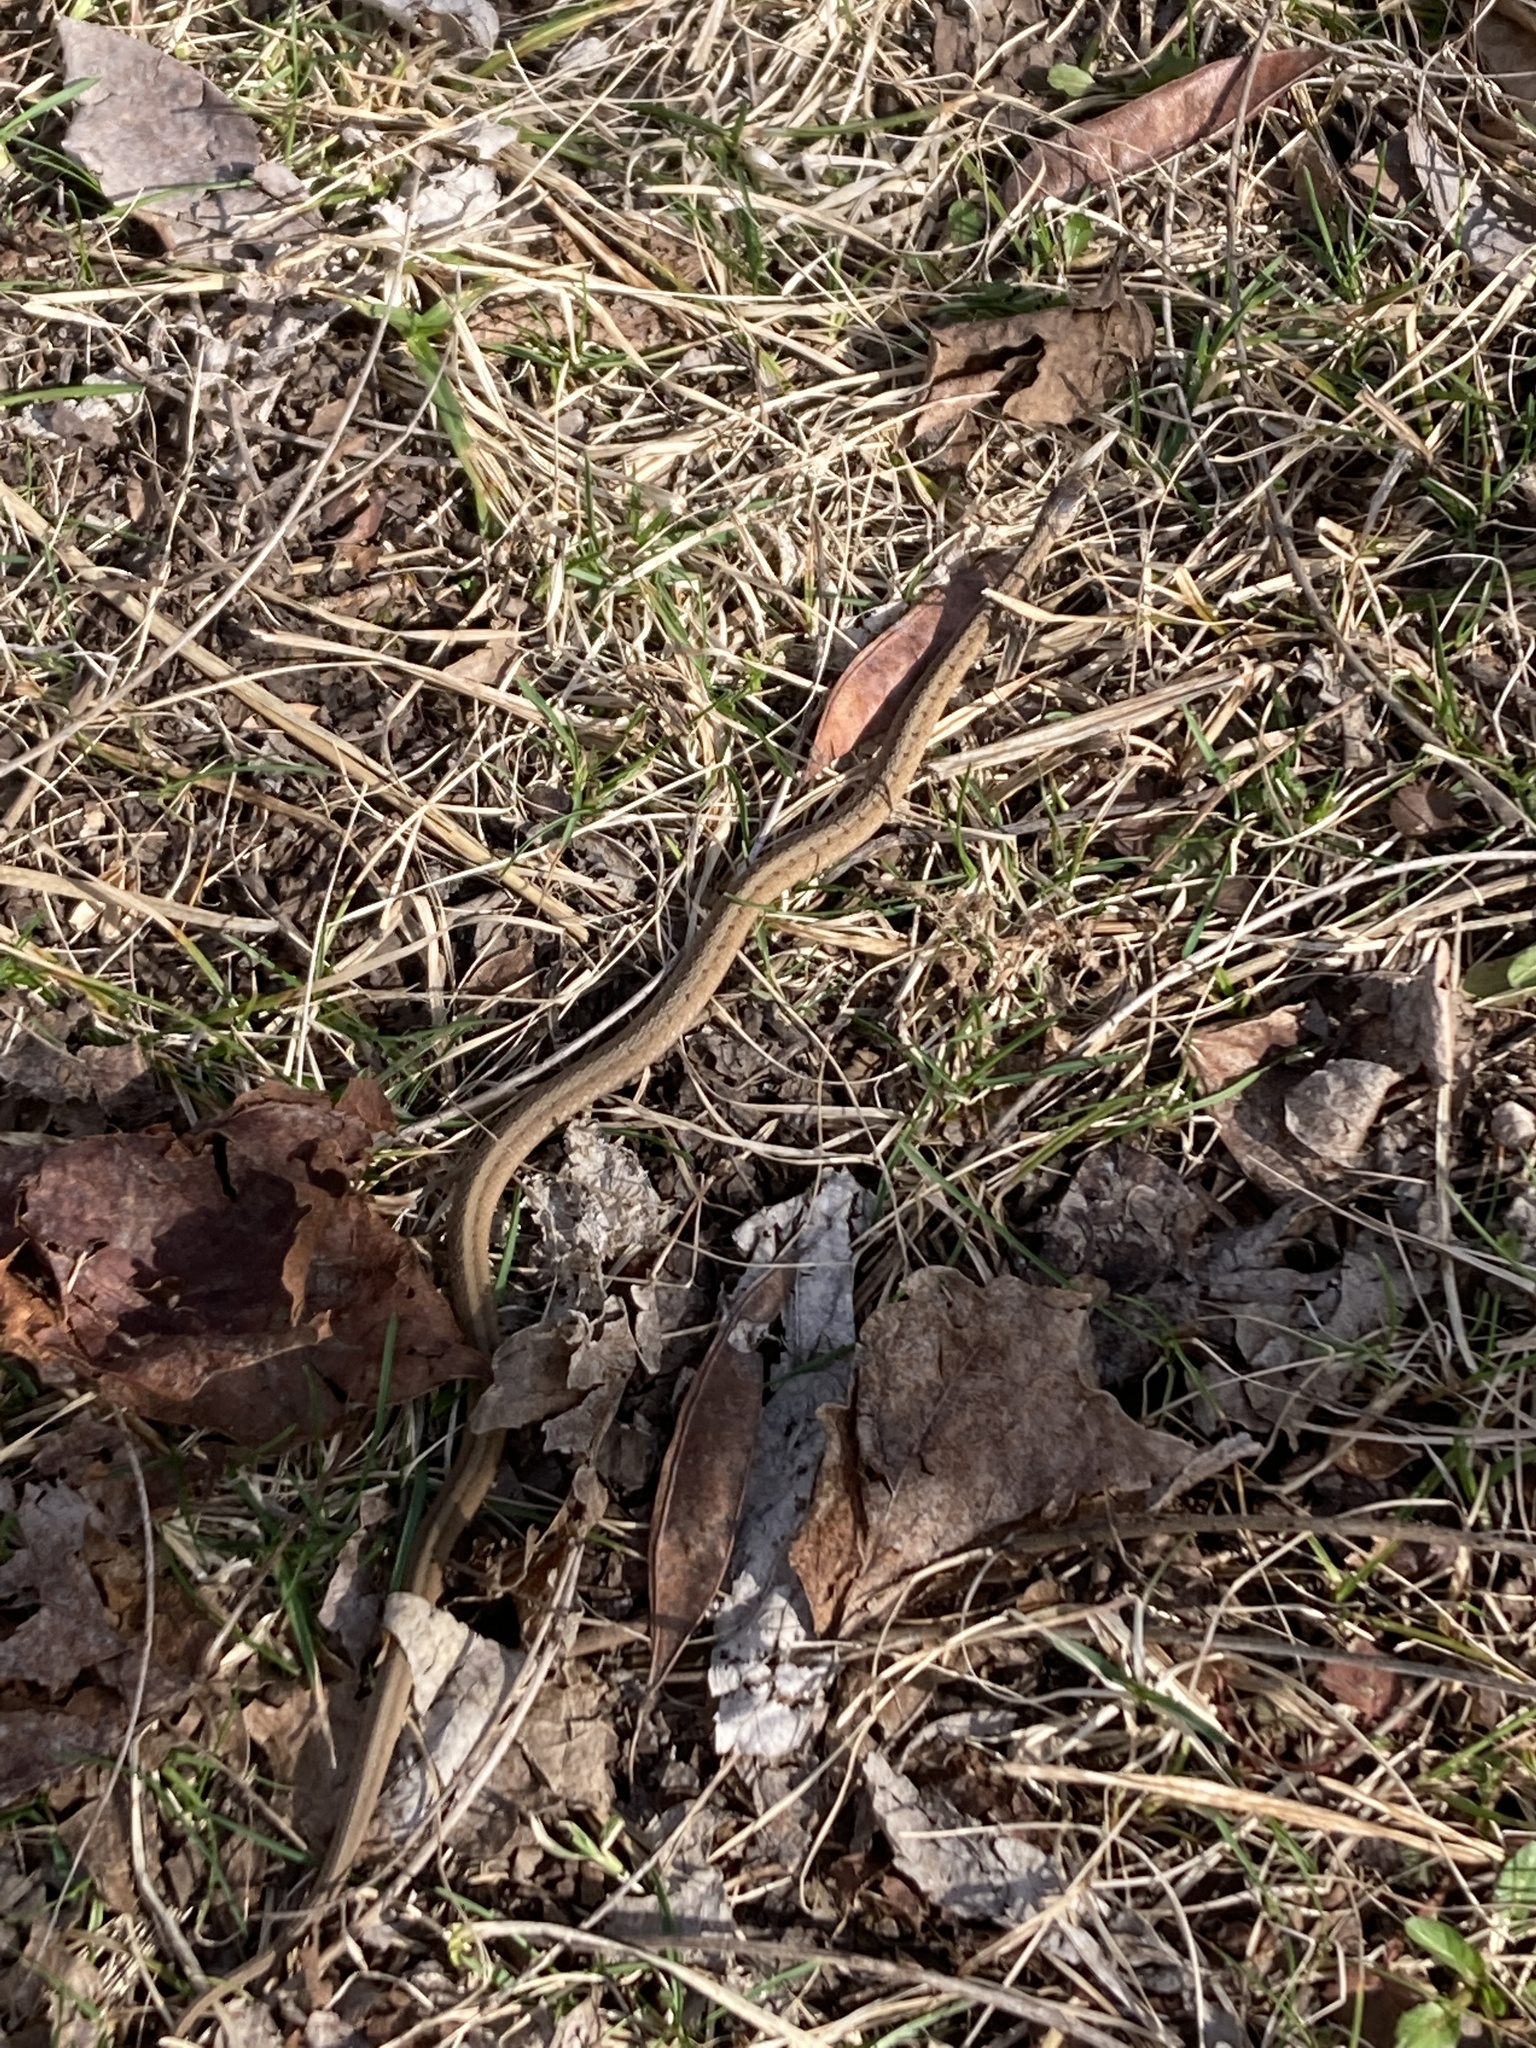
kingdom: Animalia
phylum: Chordata
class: Squamata
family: Colubridae
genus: Storeria
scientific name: Storeria dekayi
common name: (dekay’s) brown snake
